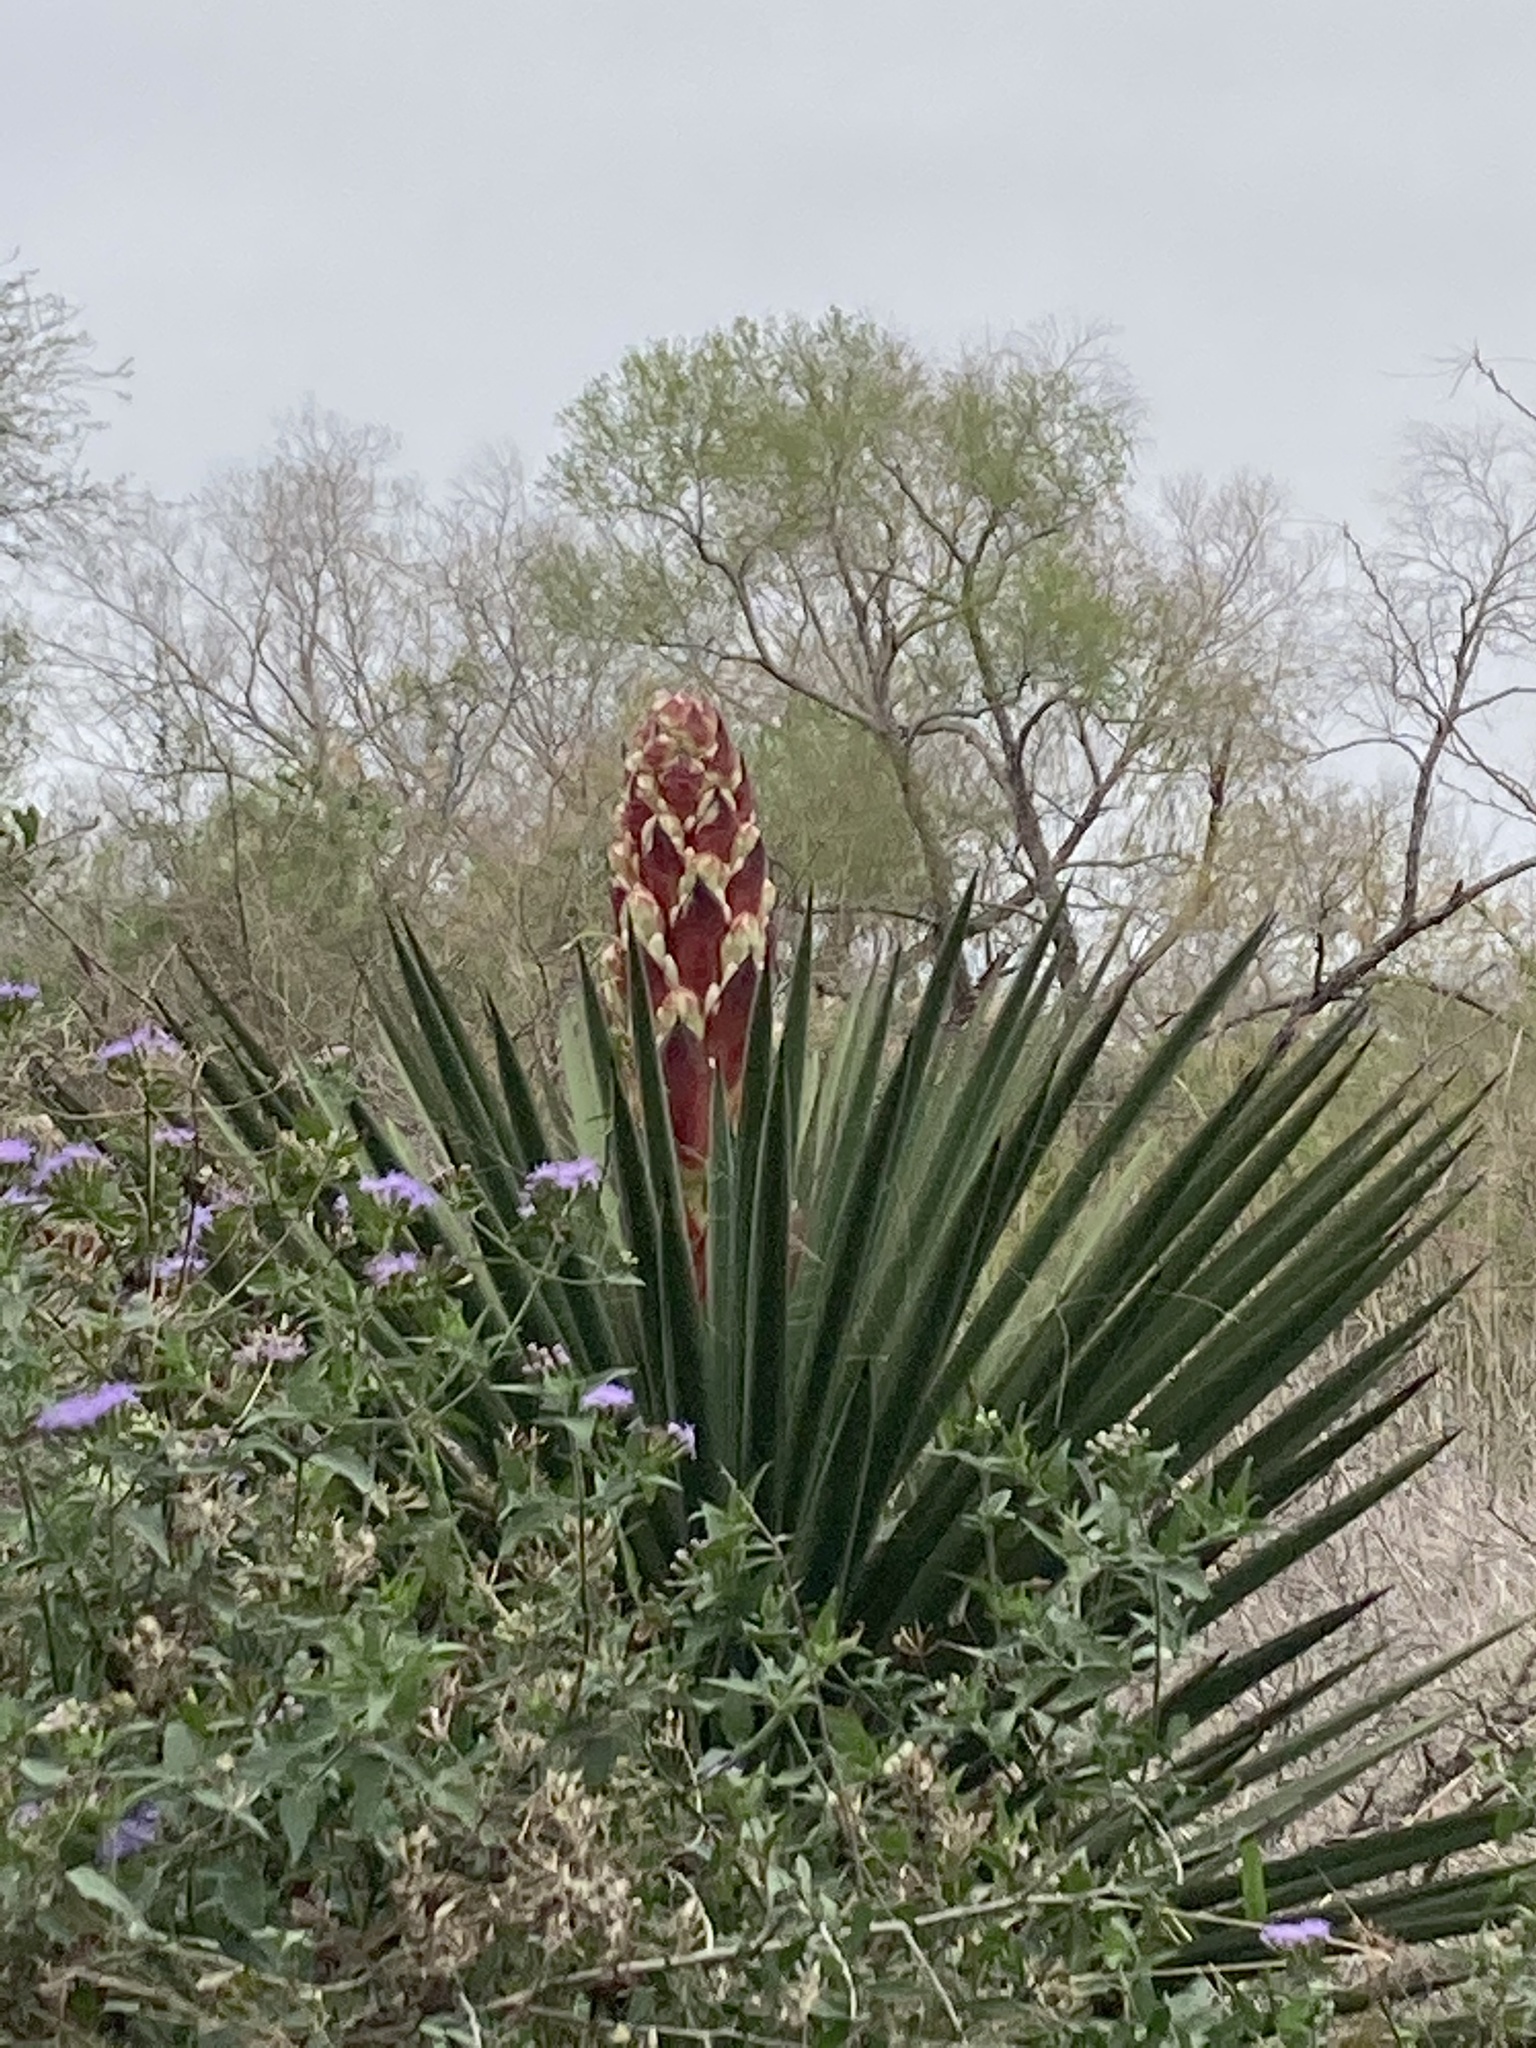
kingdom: Plantae
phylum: Tracheophyta
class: Liliopsida
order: Asparagales
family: Asparagaceae
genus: Yucca
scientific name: Yucca treculiana
